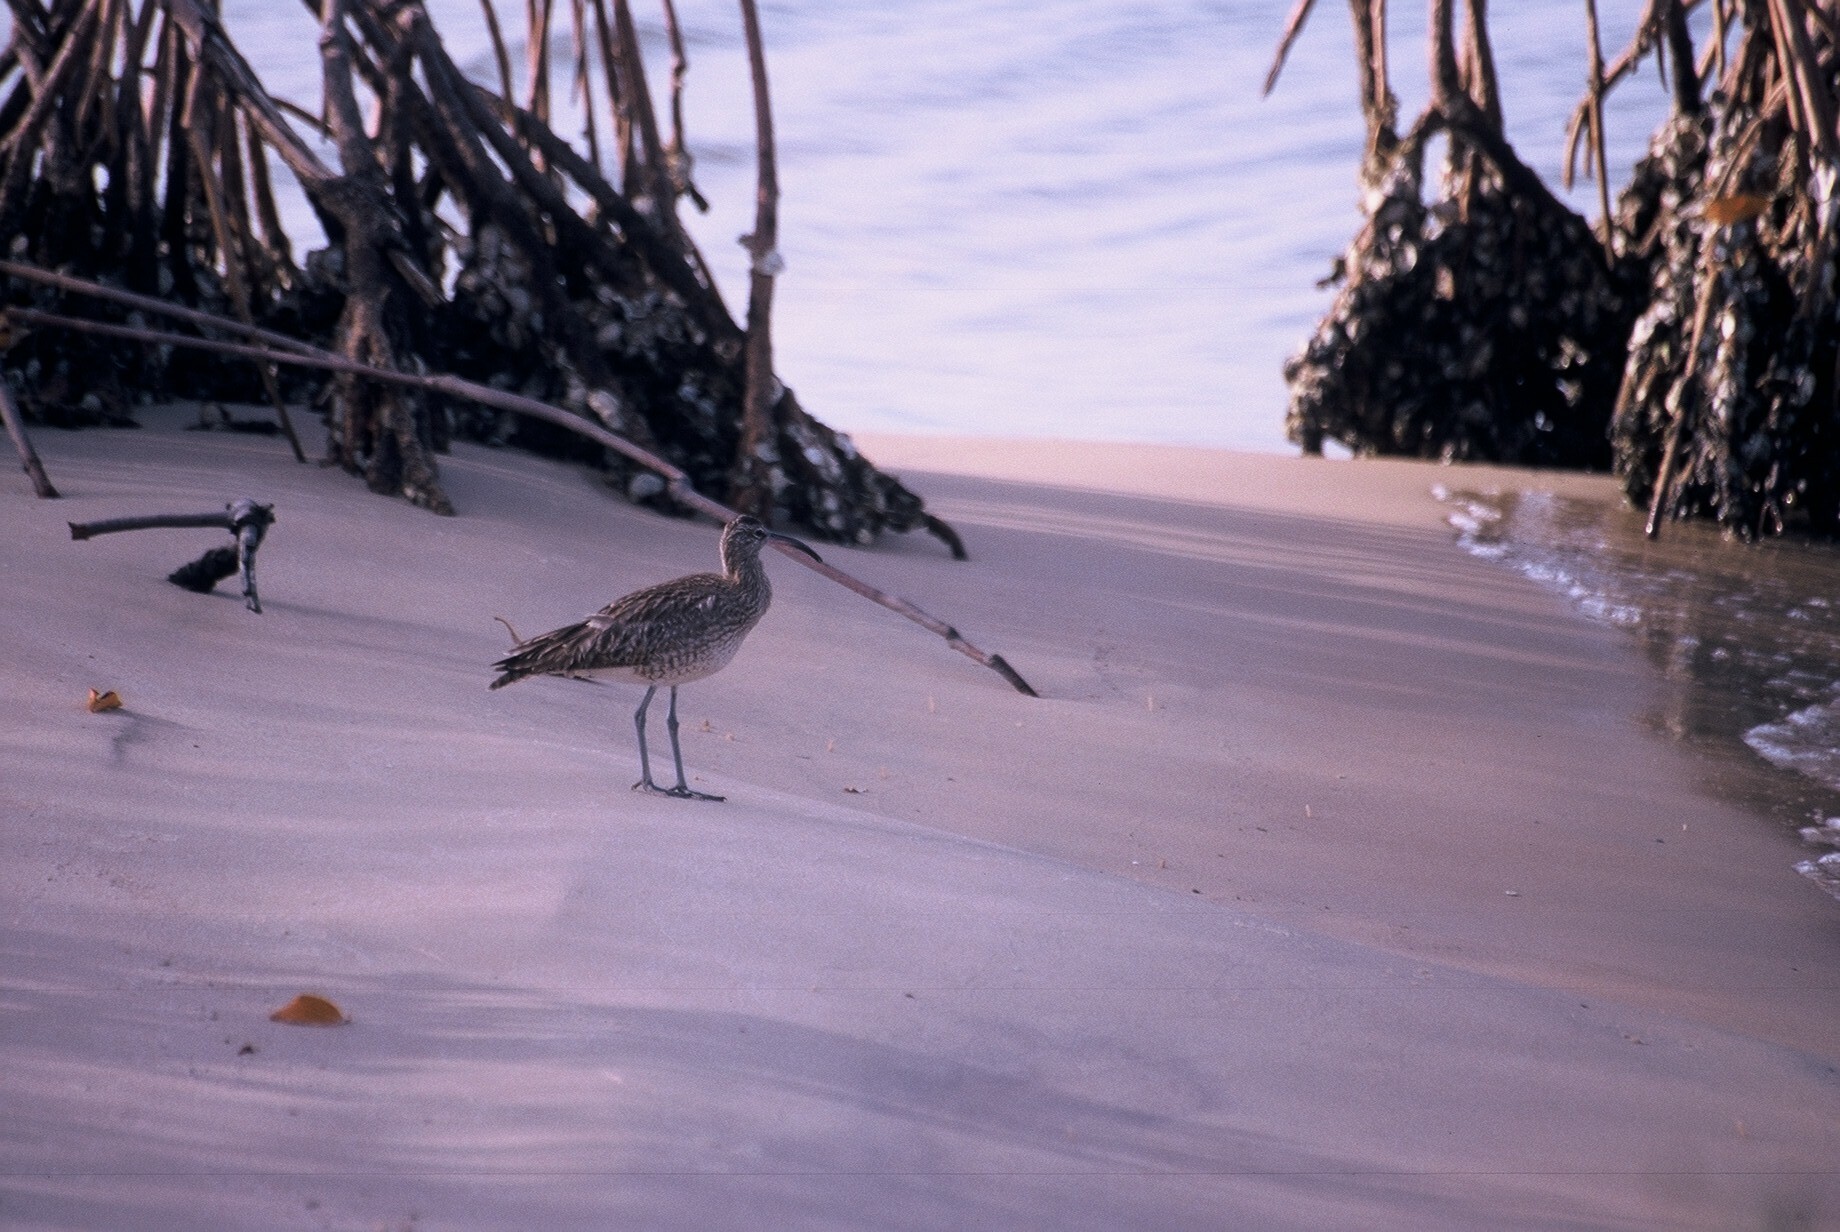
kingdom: Animalia
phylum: Chordata
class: Aves
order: Charadriiformes
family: Scolopacidae
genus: Numenius
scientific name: Numenius phaeopus
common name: Whimbrel
